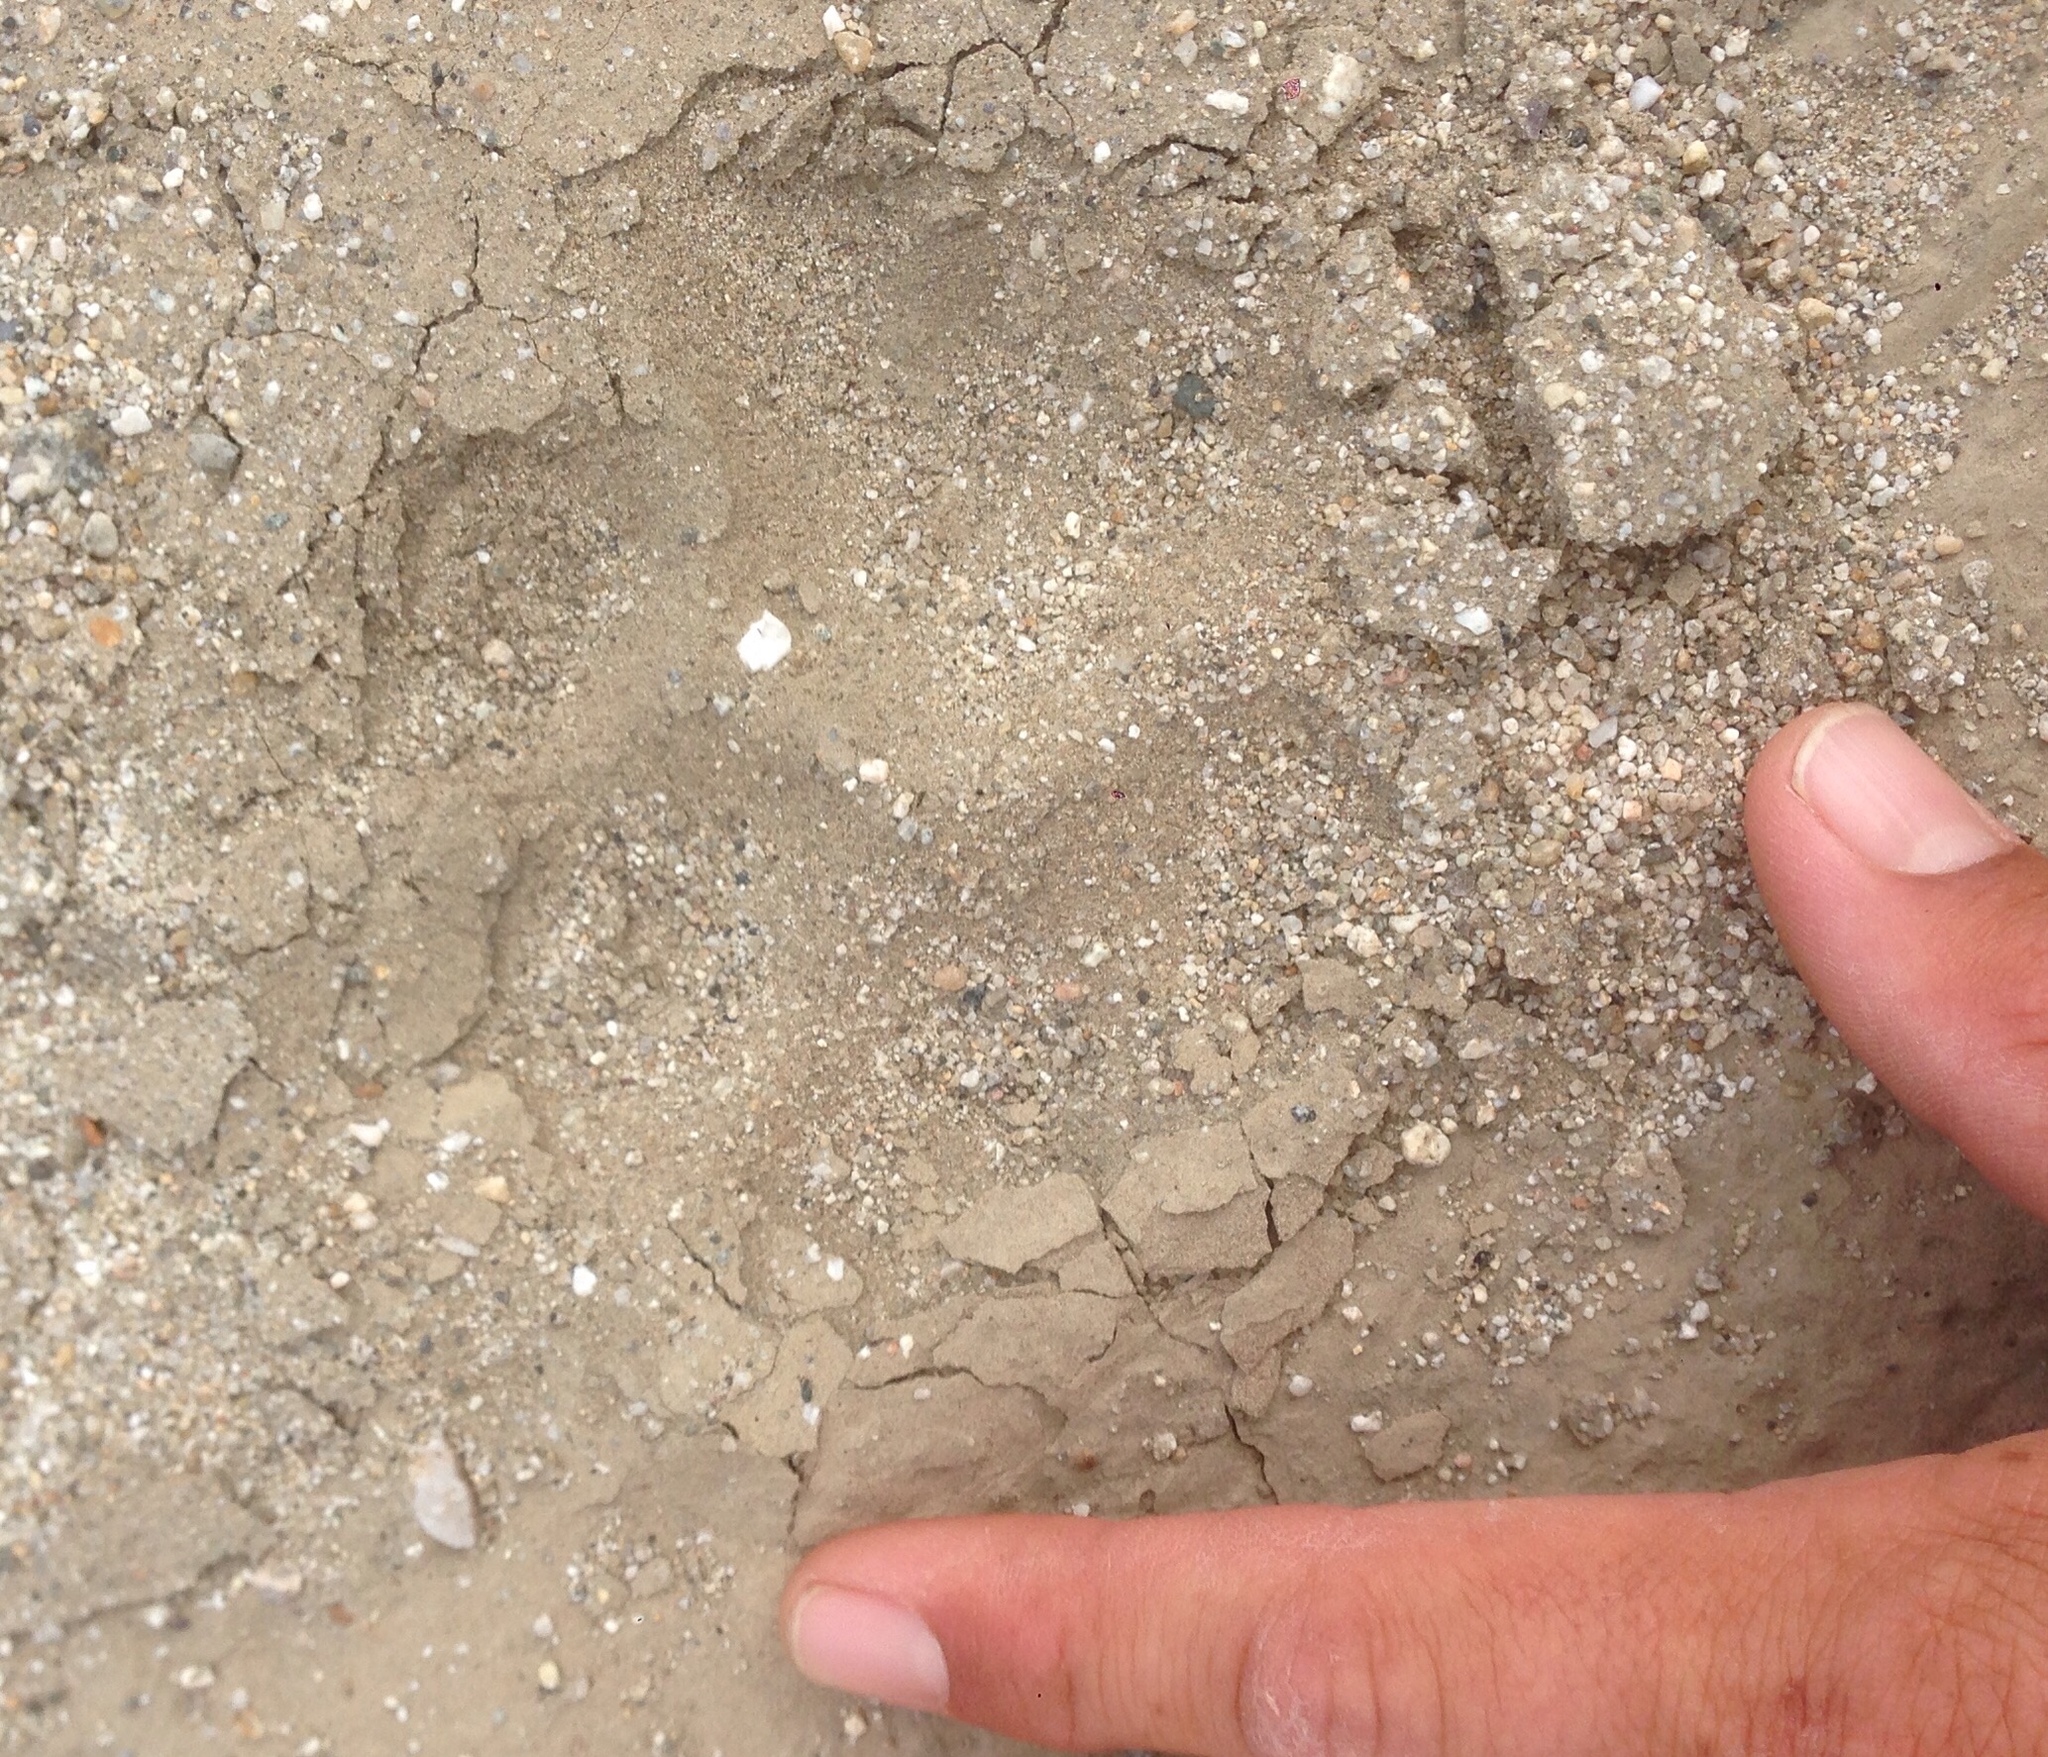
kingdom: Animalia
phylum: Chordata
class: Mammalia
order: Carnivora
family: Felidae
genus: Puma
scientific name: Puma concolor
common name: Puma
